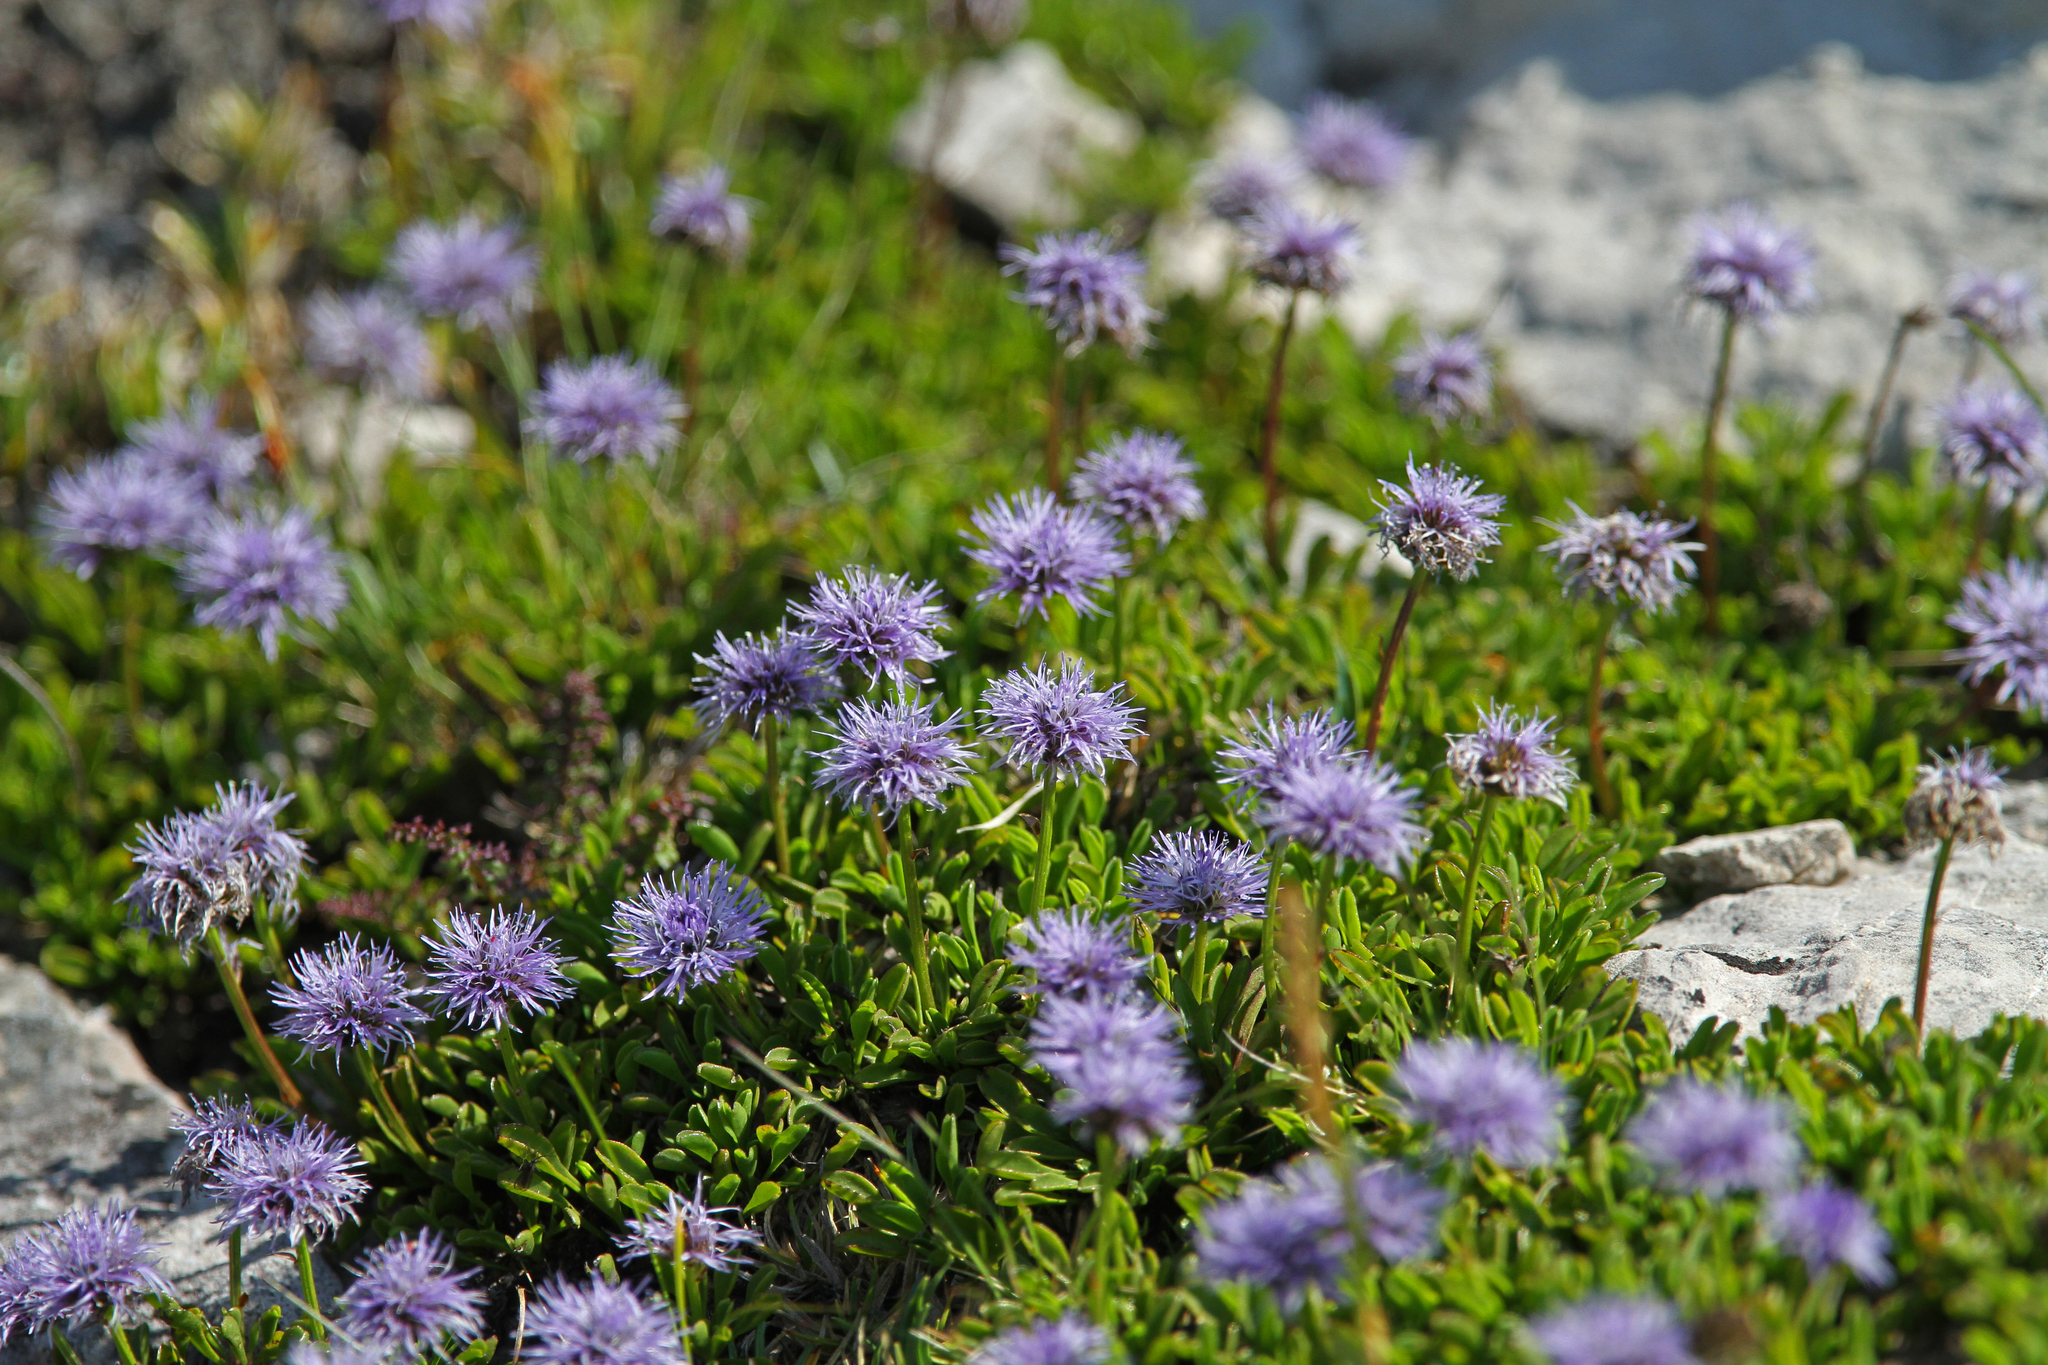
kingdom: Plantae
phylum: Tracheophyta
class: Magnoliopsida
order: Lamiales
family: Plantaginaceae
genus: Globularia
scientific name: Globularia cordifolia
